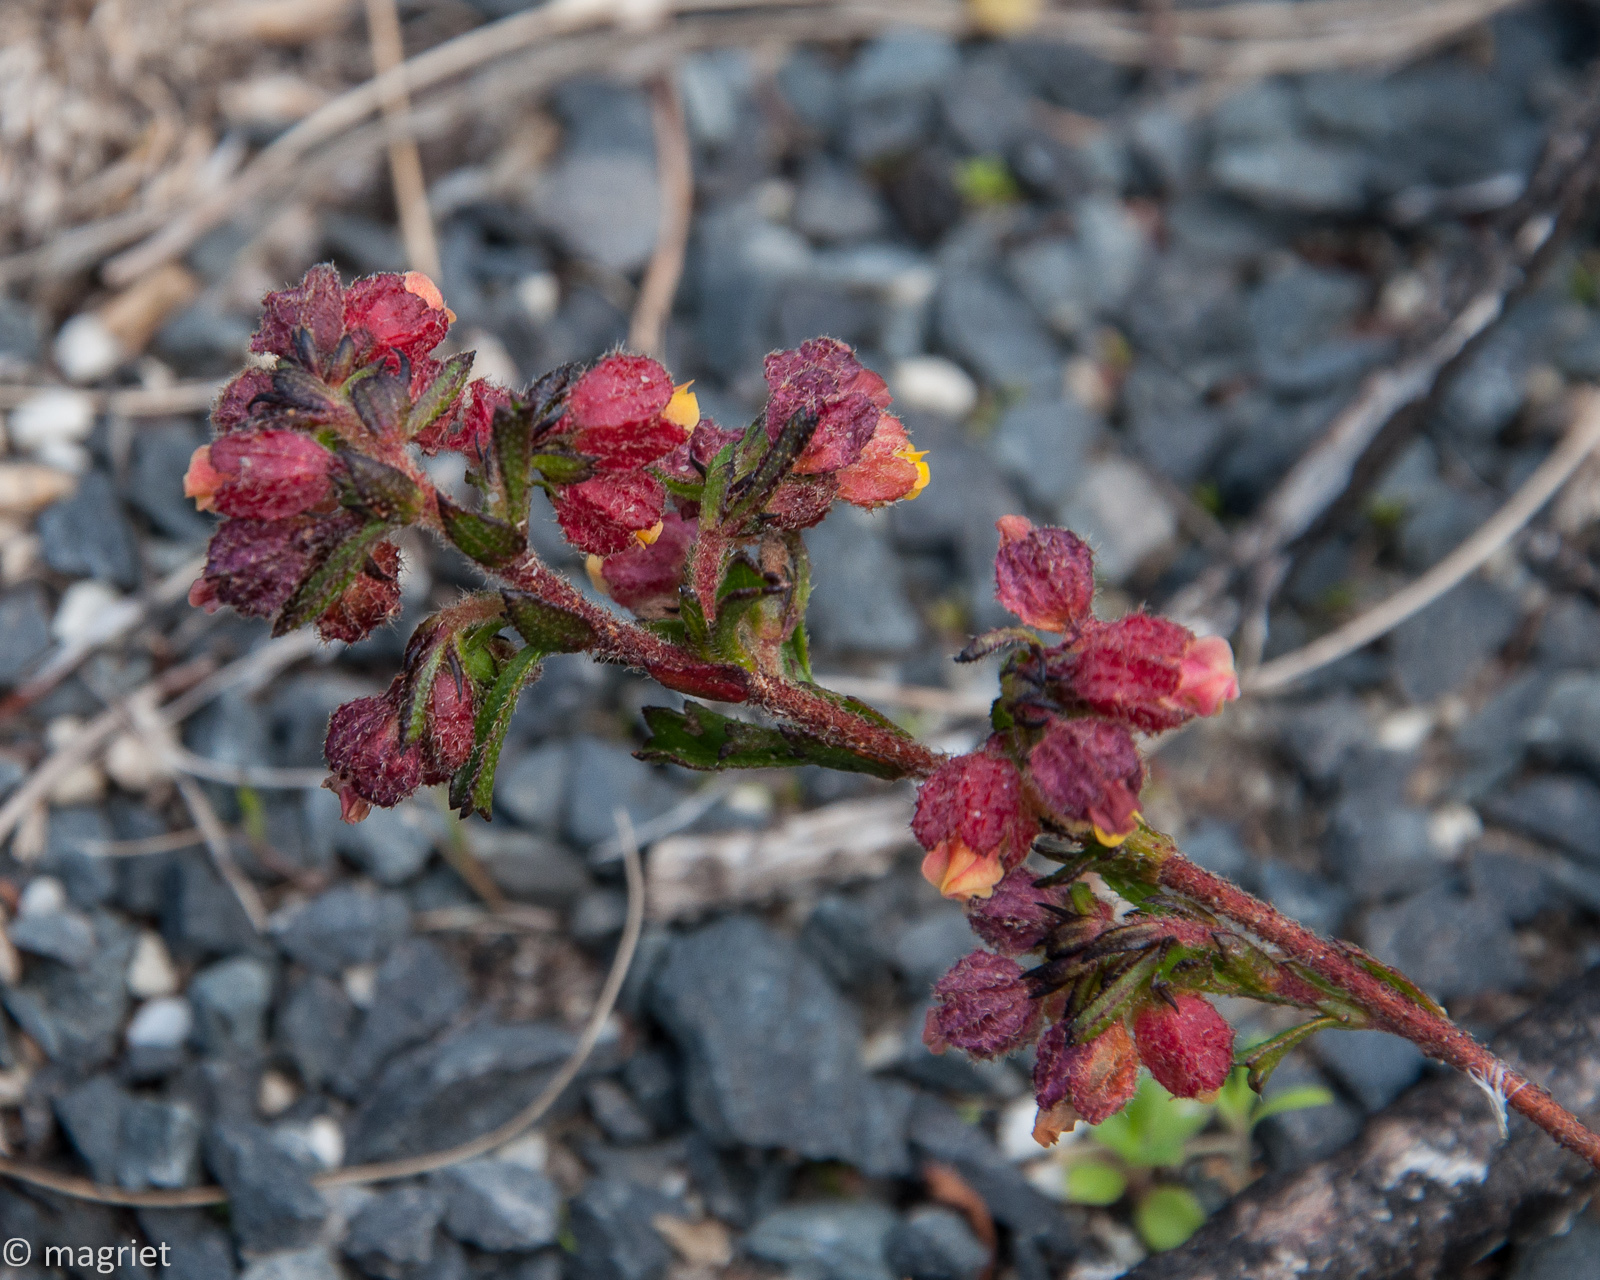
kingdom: Plantae
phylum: Tracheophyta
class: Magnoliopsida
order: Malvales
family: Malvaceae
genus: Hermannia
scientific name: Hermannia rudis
